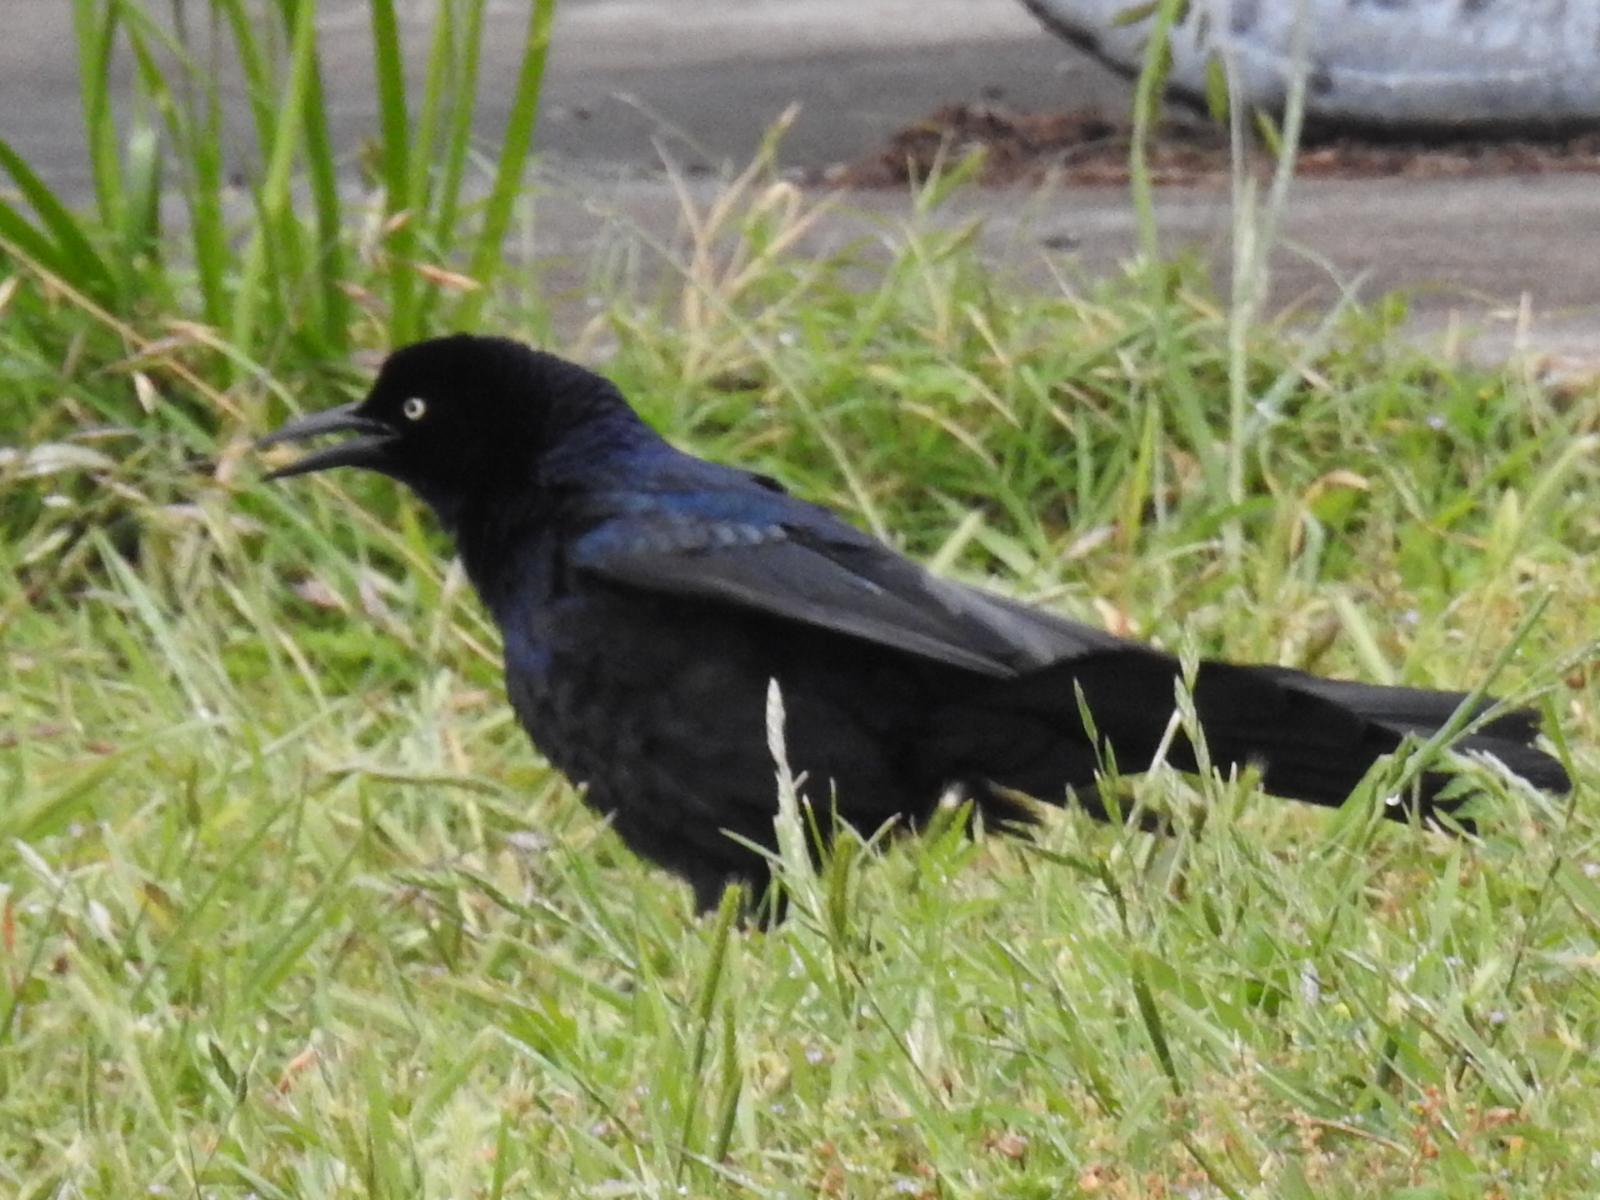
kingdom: Animalia
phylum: Chordata
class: Aves
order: Passeriformes
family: Icteridae
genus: Quiscalus
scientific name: Quiscalus mexicanus
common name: Great-tailed grackle
